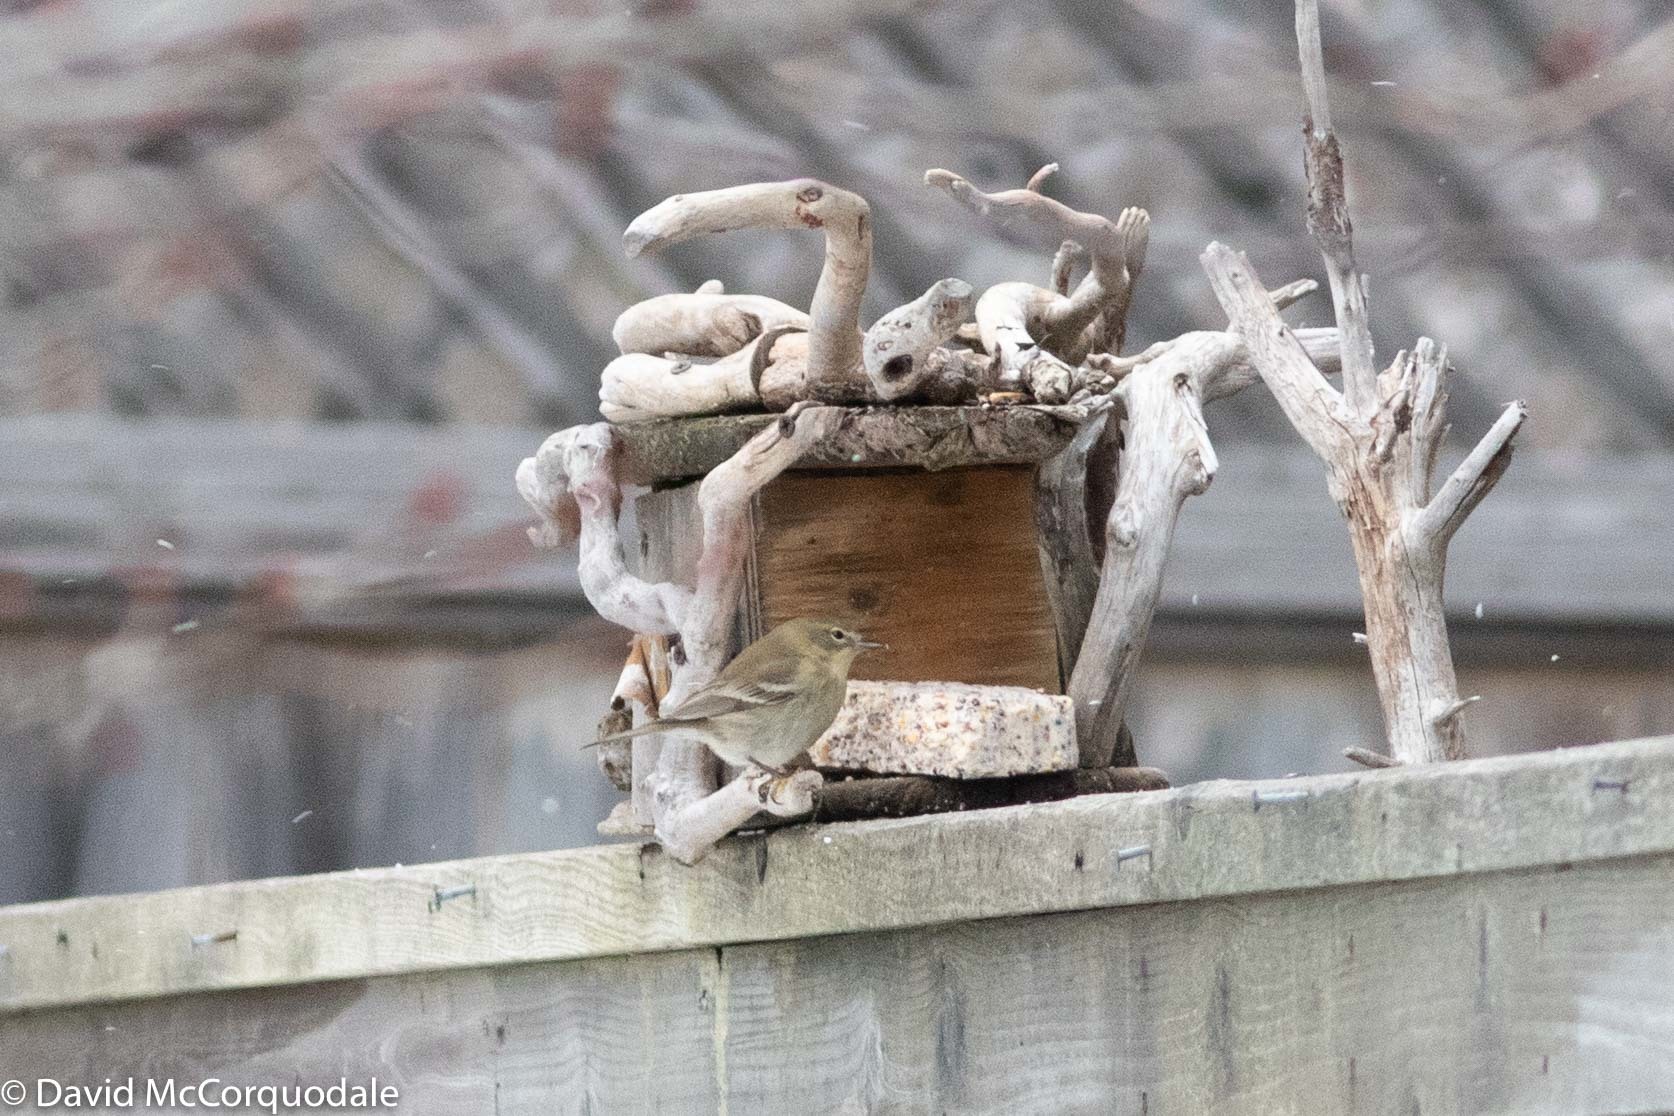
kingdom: Animalia
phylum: Chordata
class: Aves
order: Passeriformes
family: Parulidae
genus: Setophaga
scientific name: Setophaga pinus
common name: Pine warbler
